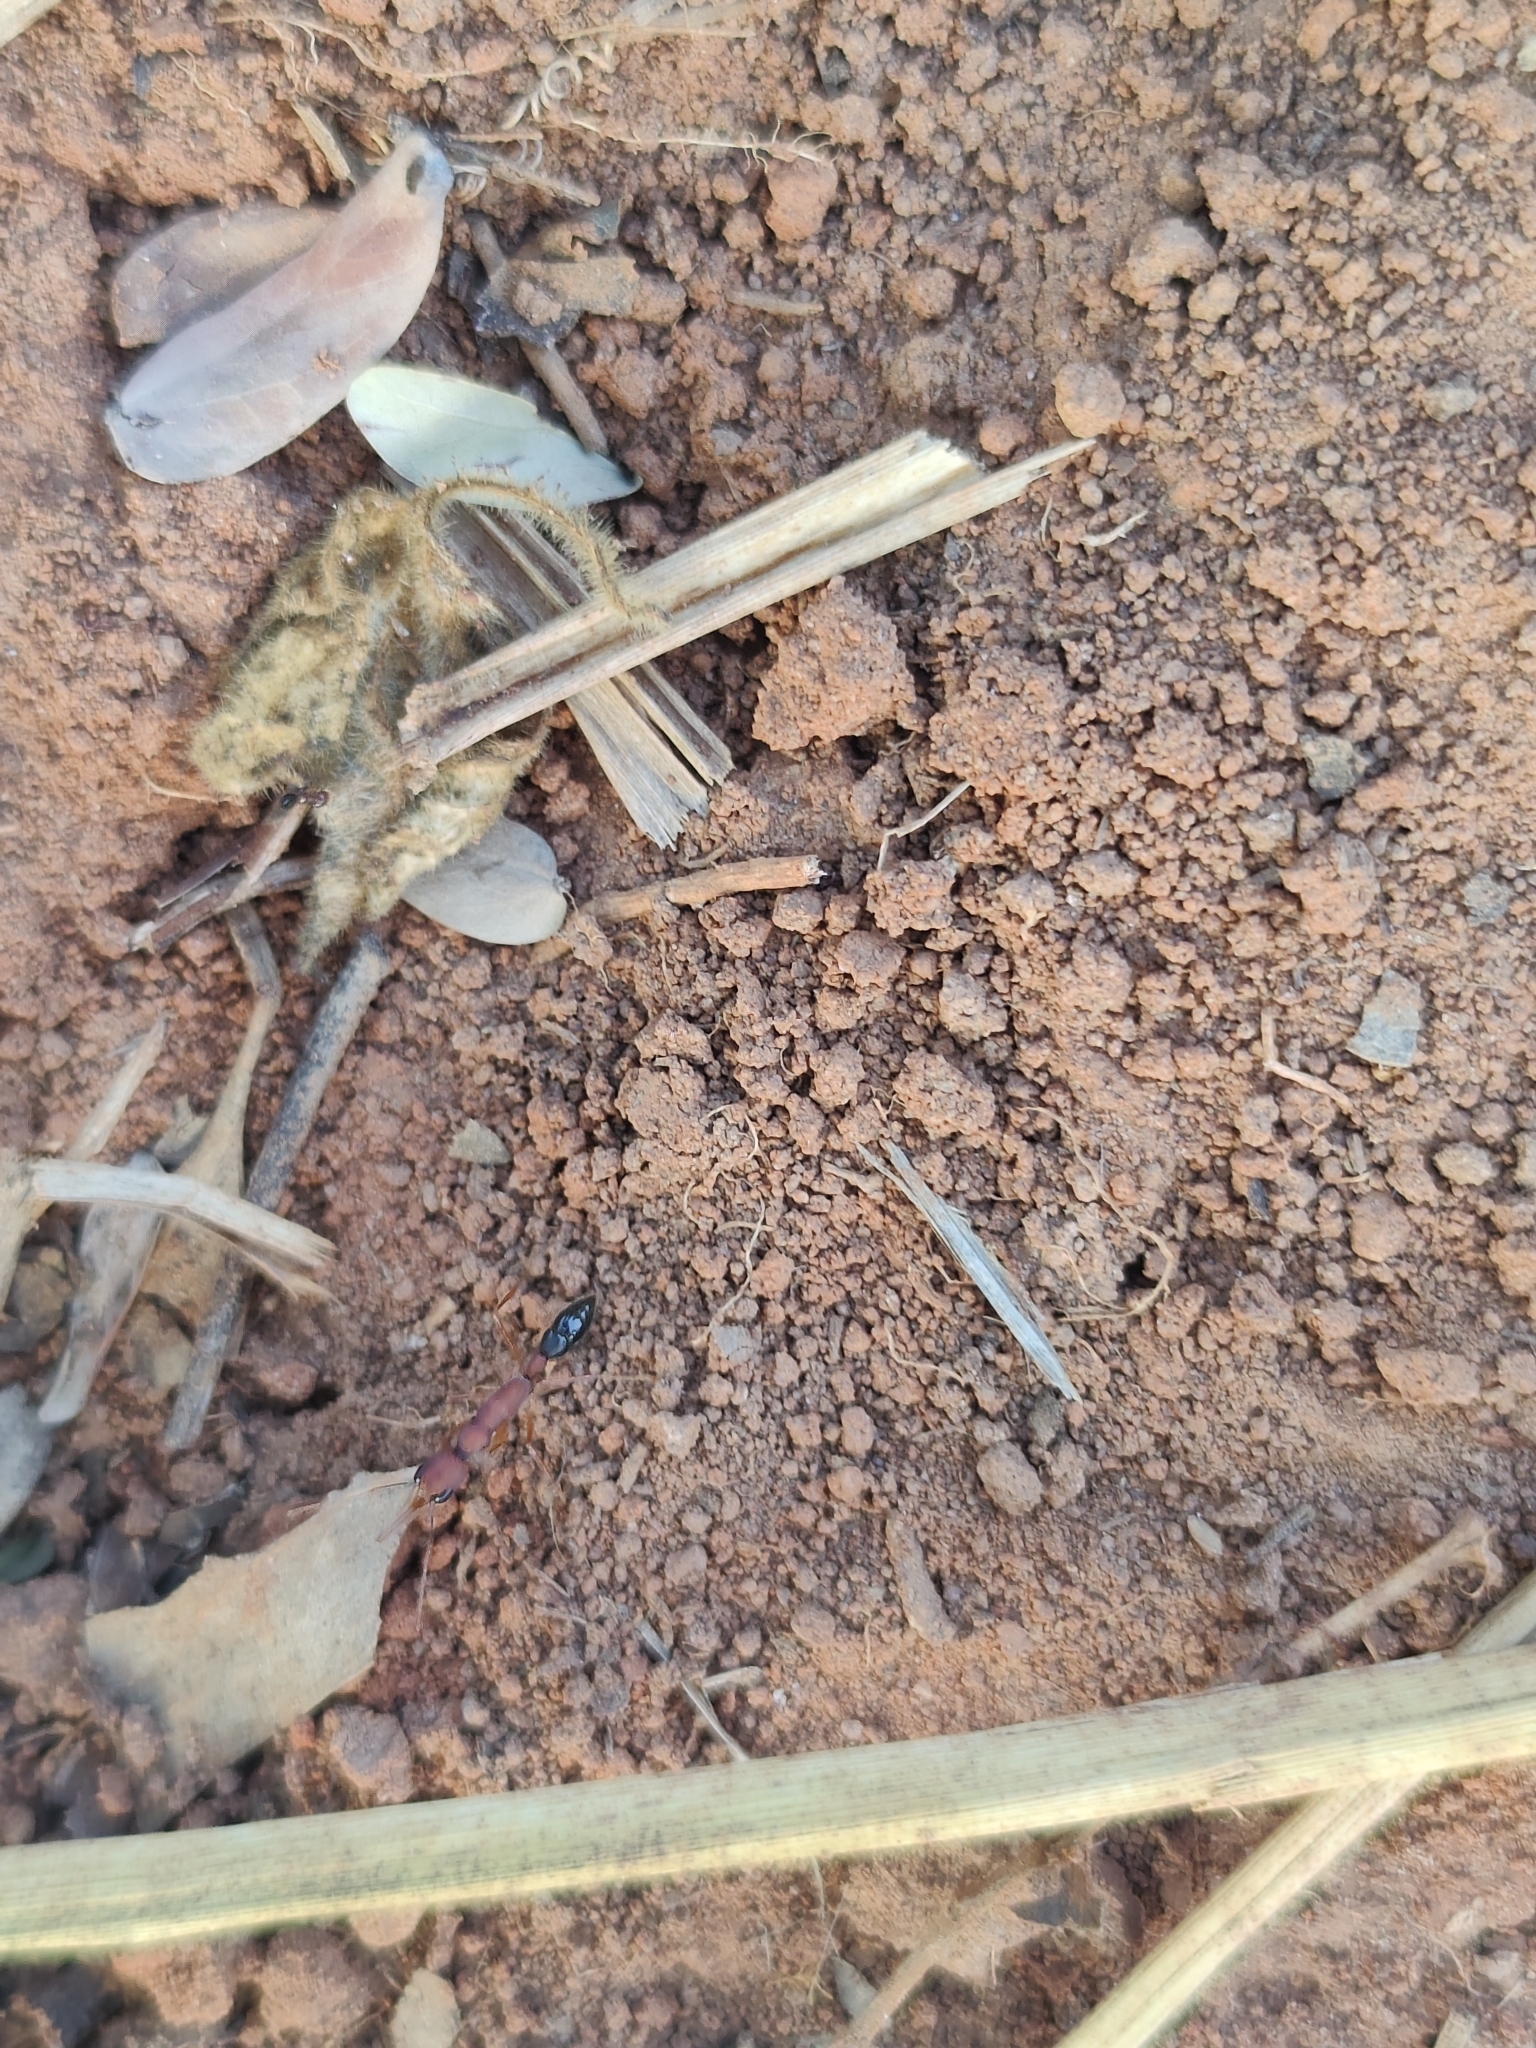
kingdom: Animalia
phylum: Arthropoda
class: Insecta
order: Hymenoptera
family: Formicidae
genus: Harpegnathos
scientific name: Harpegnathos saltator
